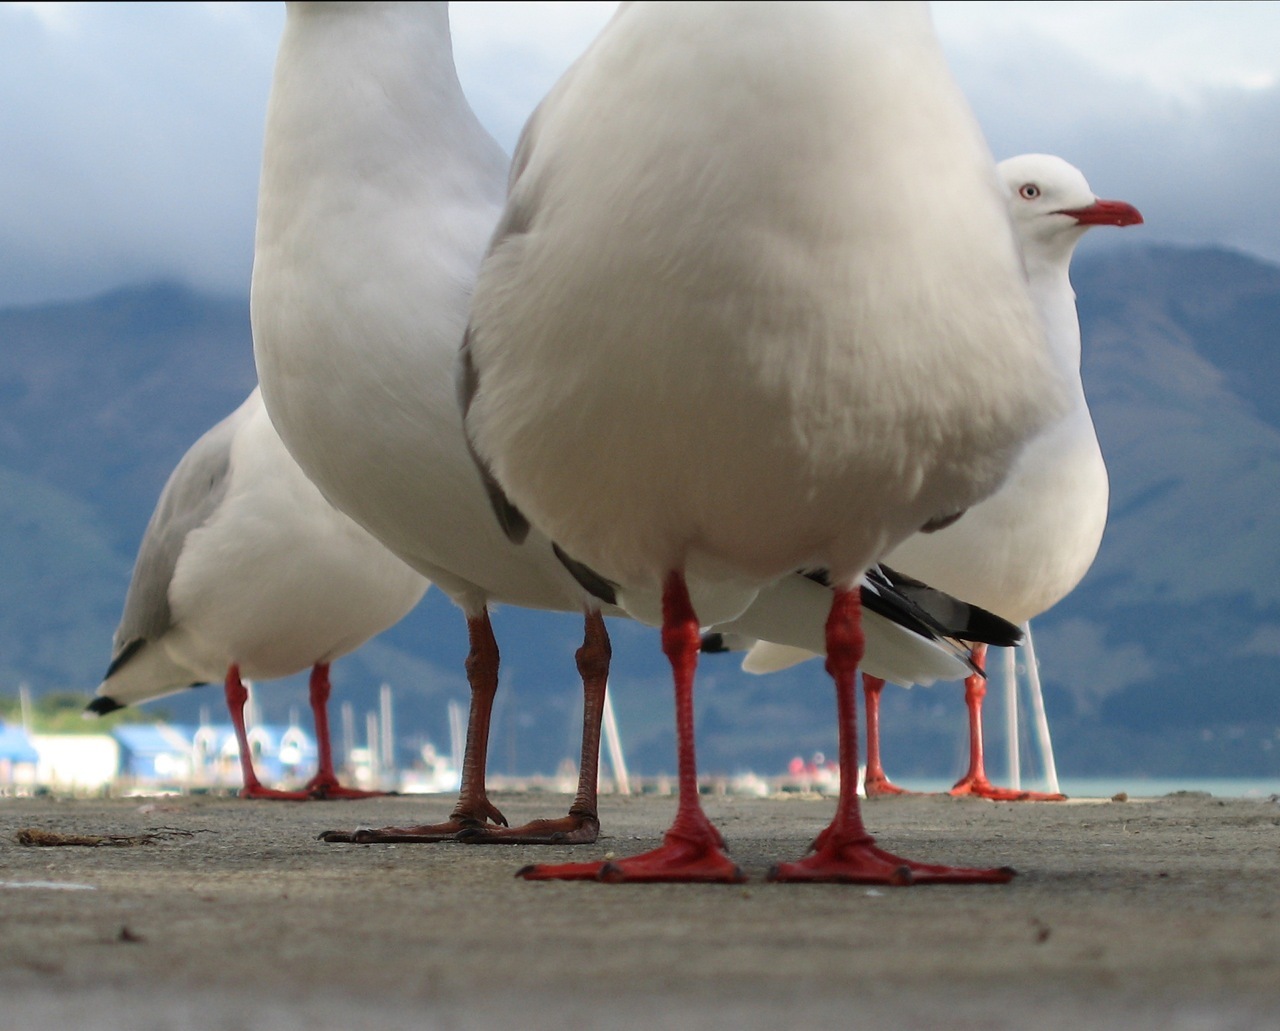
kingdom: Animalia
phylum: Chordata
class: Aves
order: Charadriiformes
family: Laridae
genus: Chroicocephalus
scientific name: Chroicocephalus novaehollandiae
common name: Silver gull
